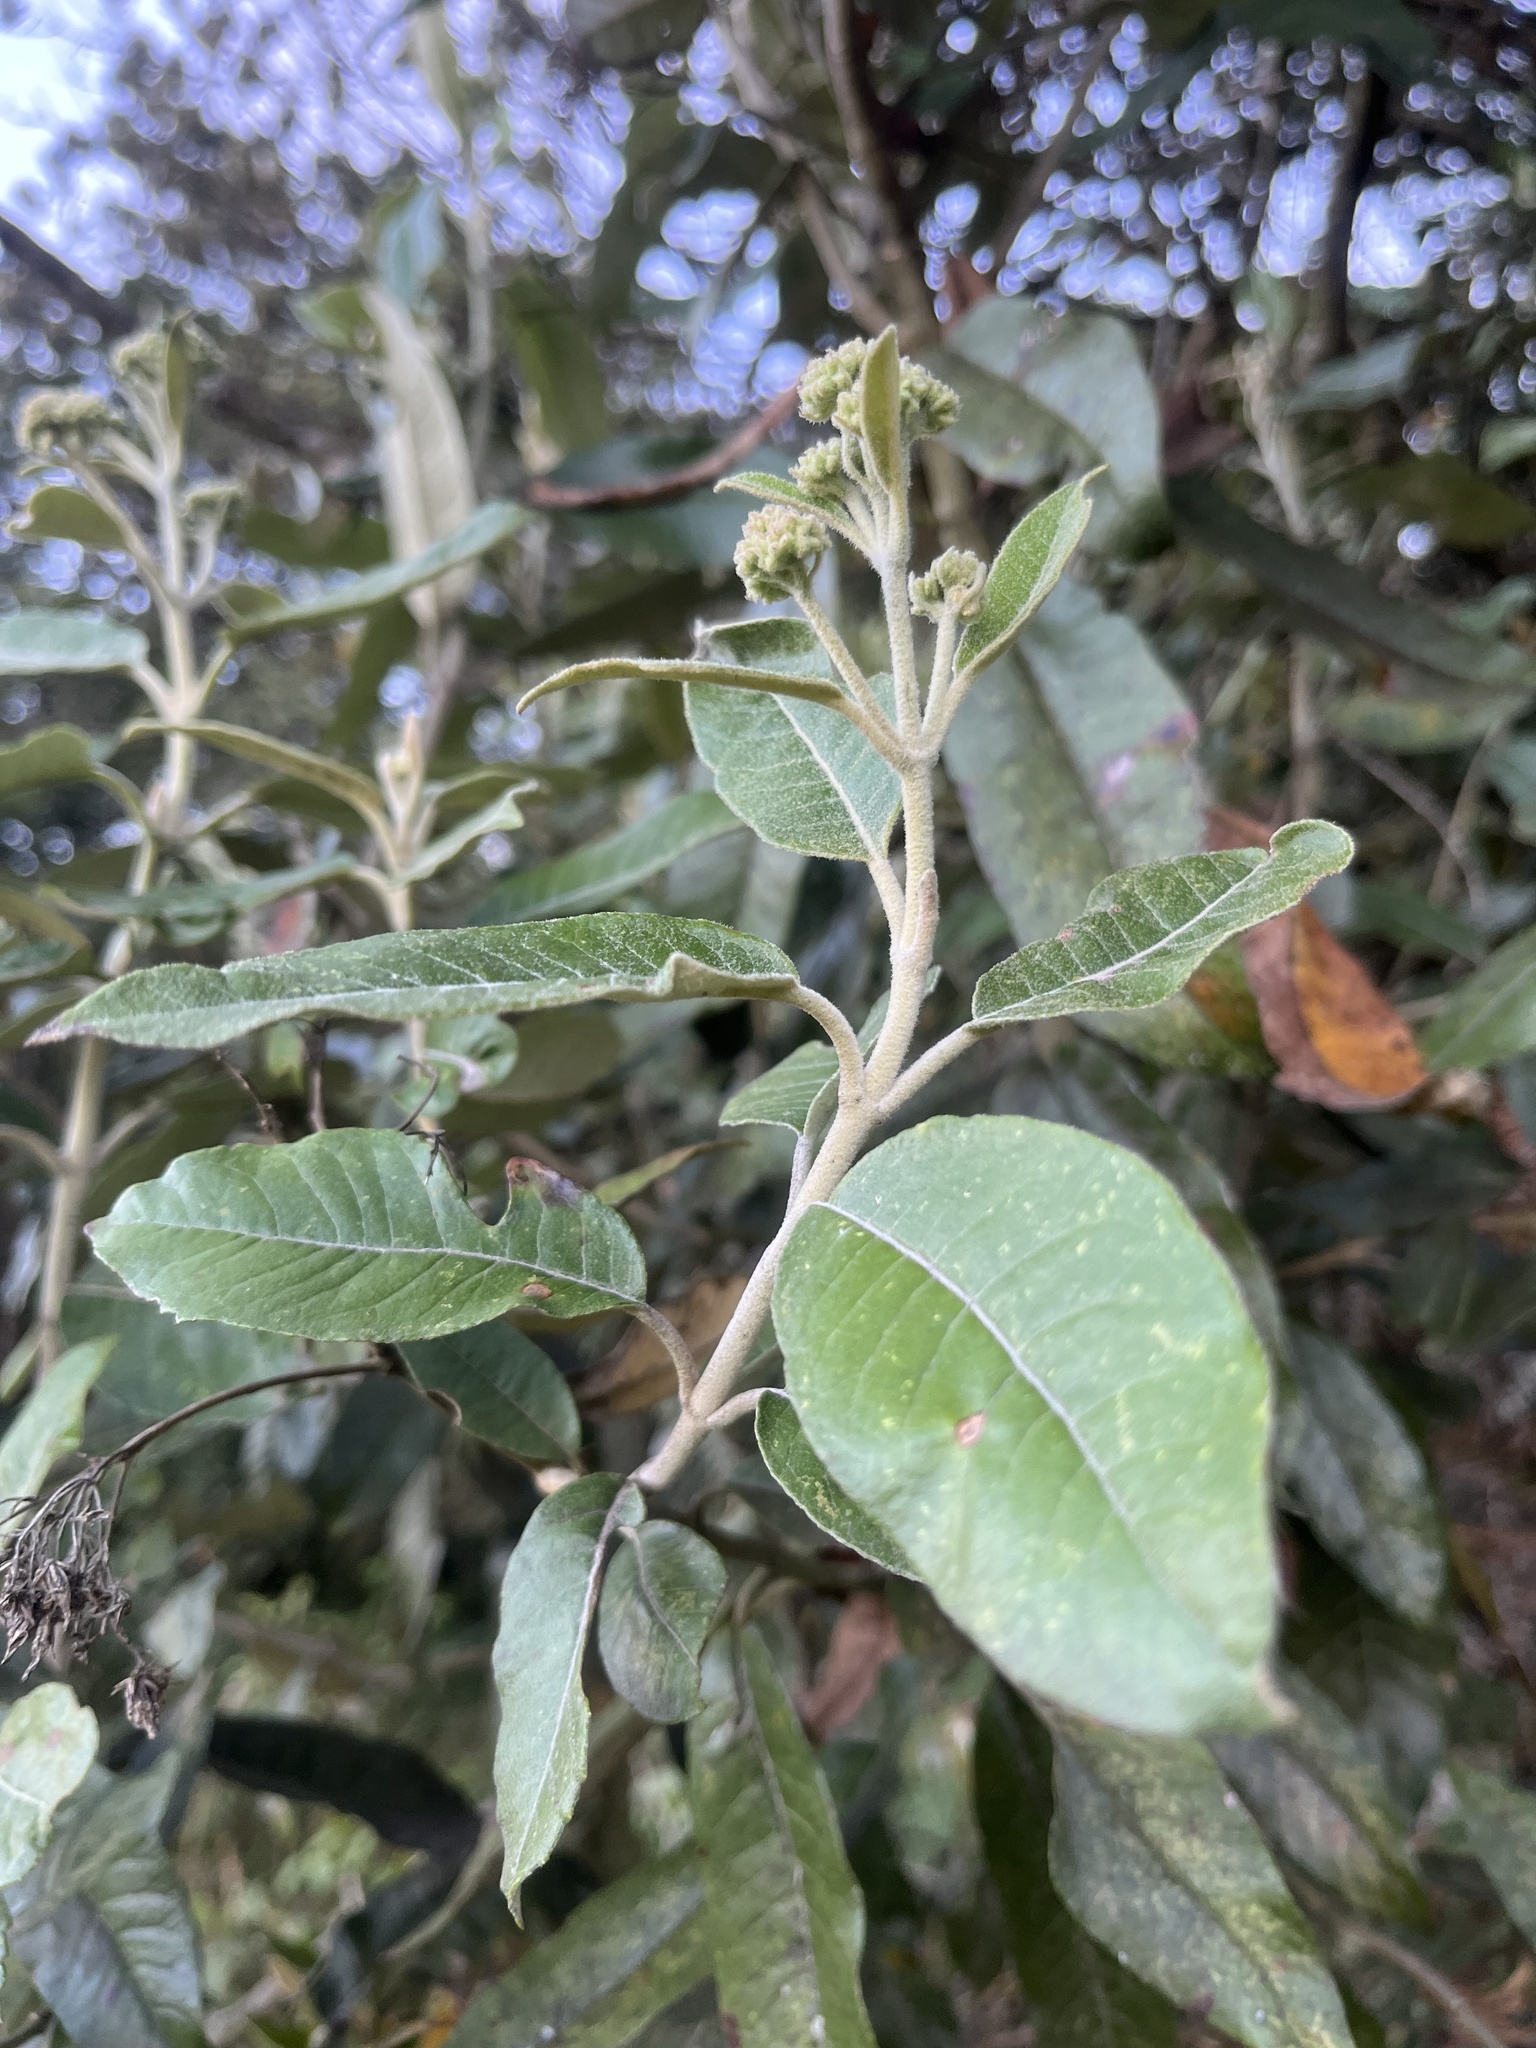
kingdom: Plantae
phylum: Tracheophyta
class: Magnoliopsida
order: Asterales
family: Asteraceae
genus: Ageratina
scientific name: Ageratina asclepiadea
